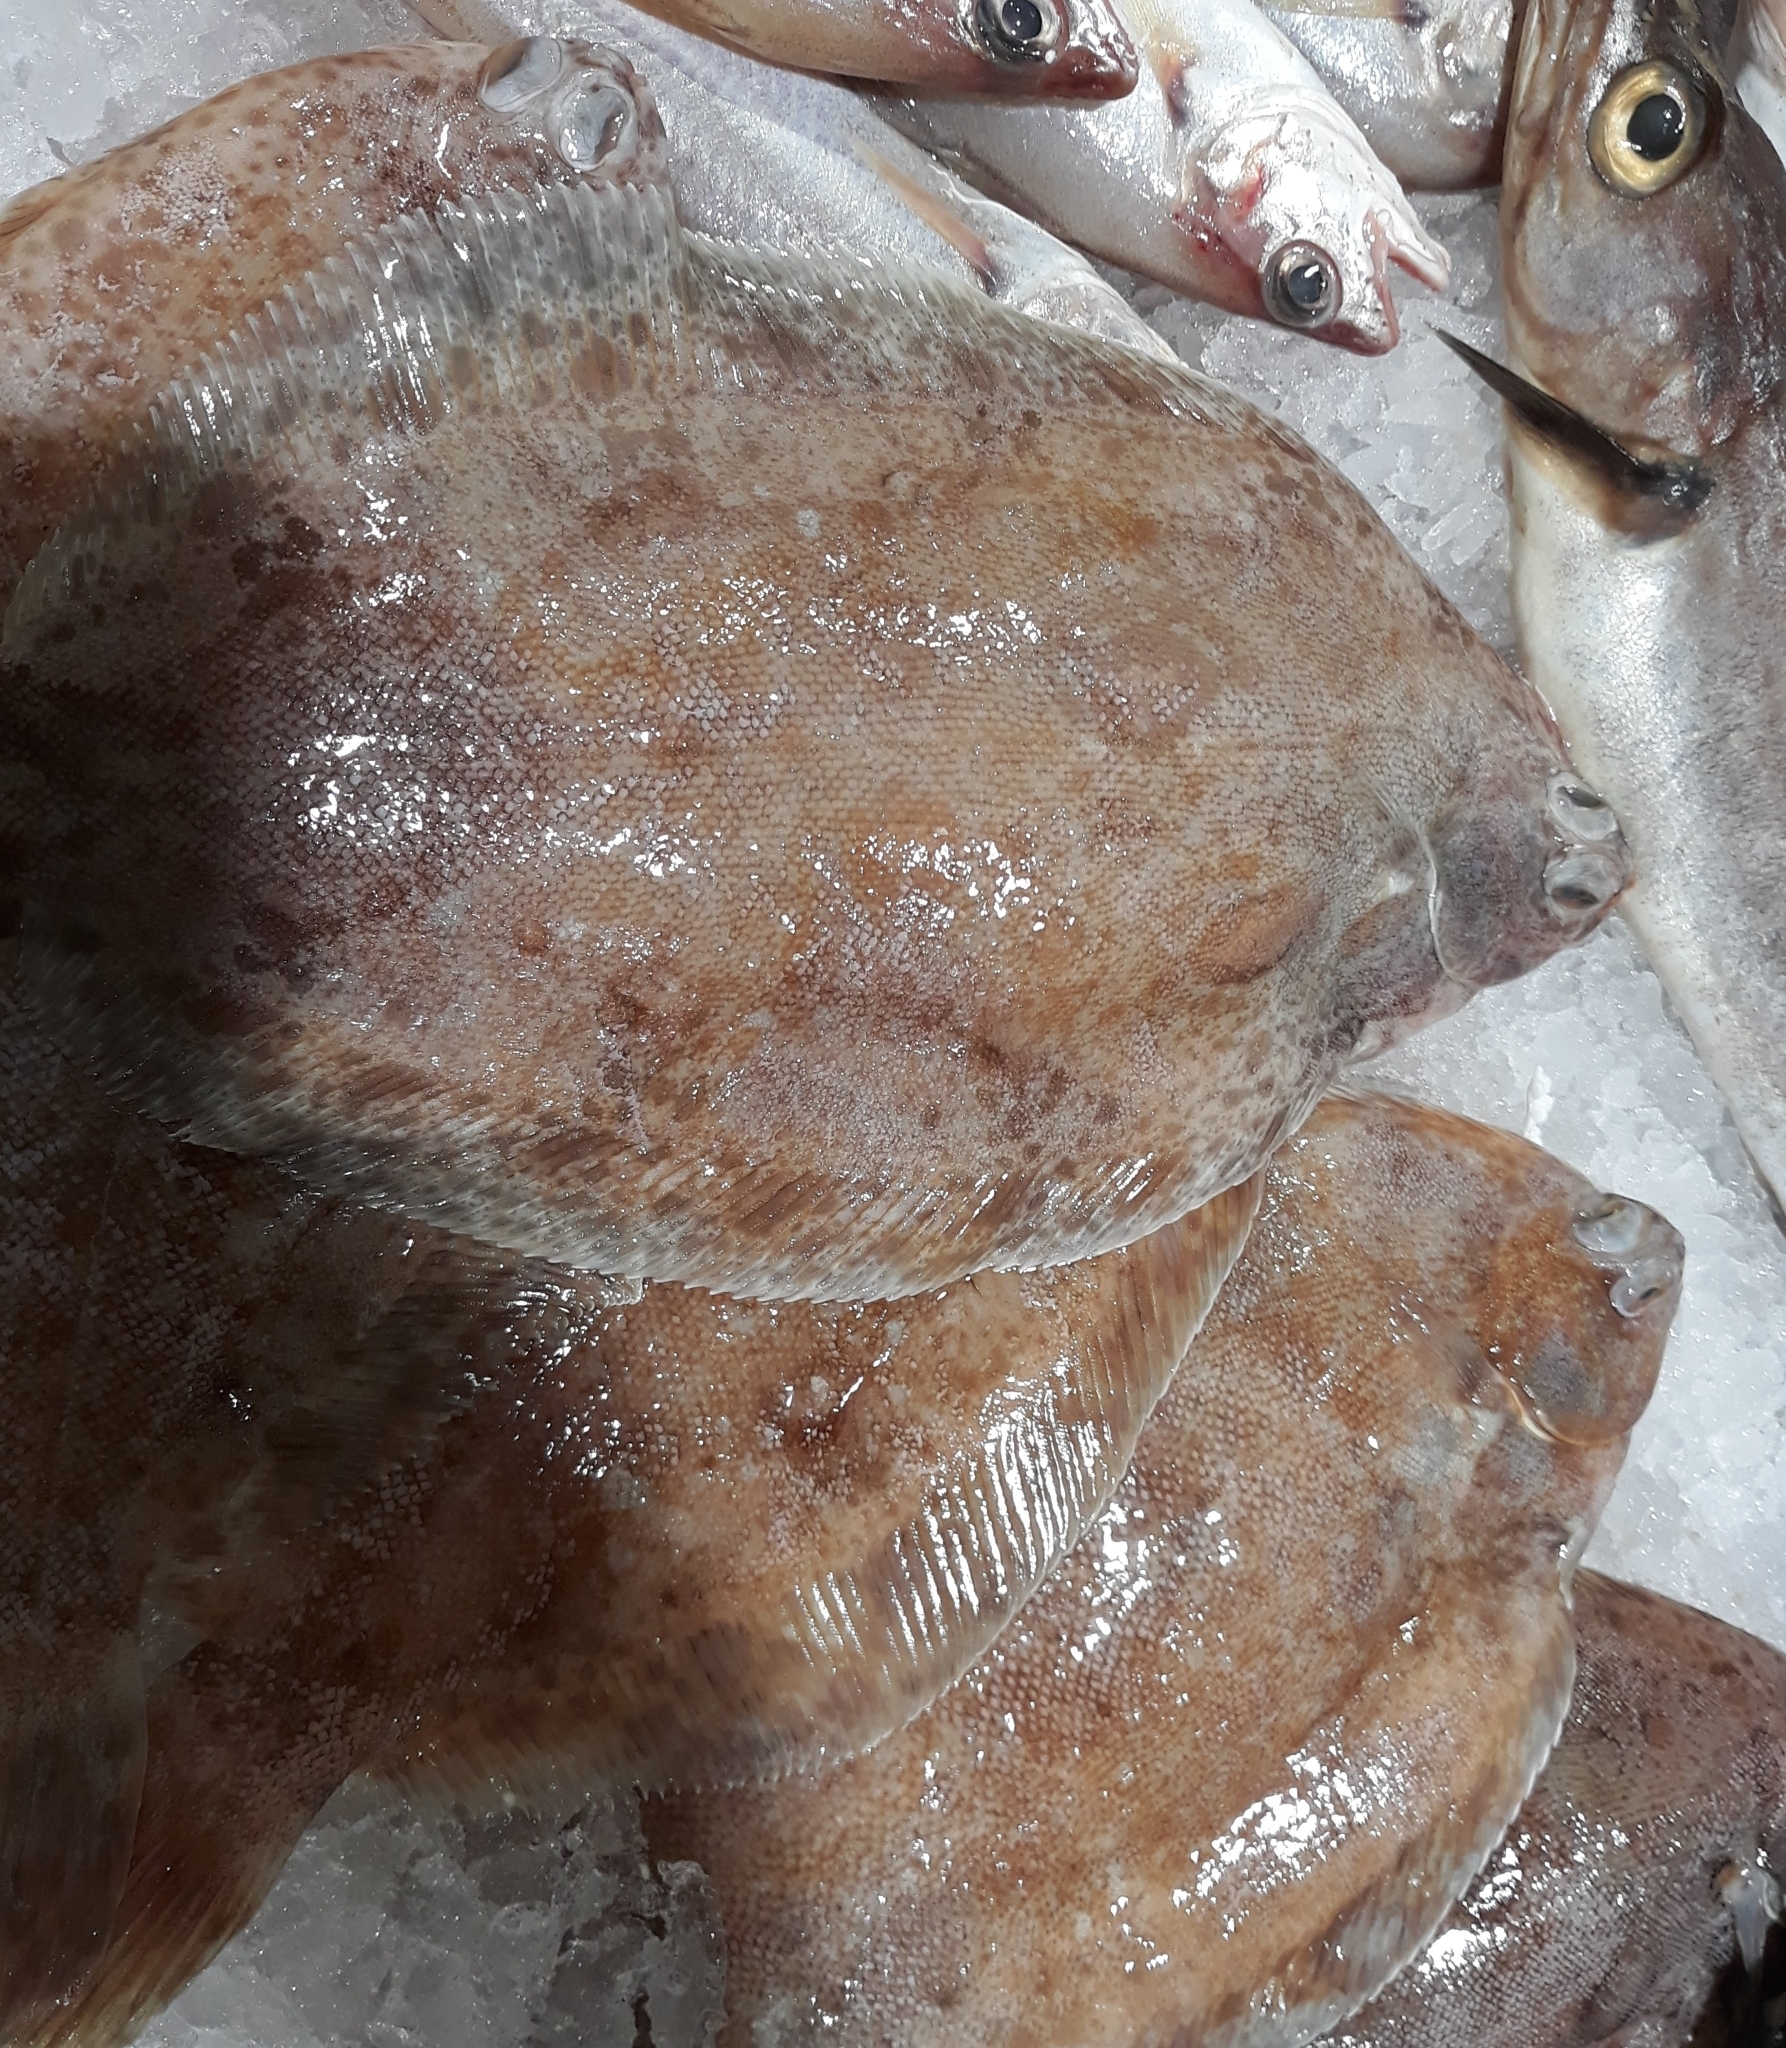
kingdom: Animalia
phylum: Chordata
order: Pleuronectiformes
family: Pleuronectidae
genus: Microstomus
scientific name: Microstomus kitt
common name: Lemon sole
